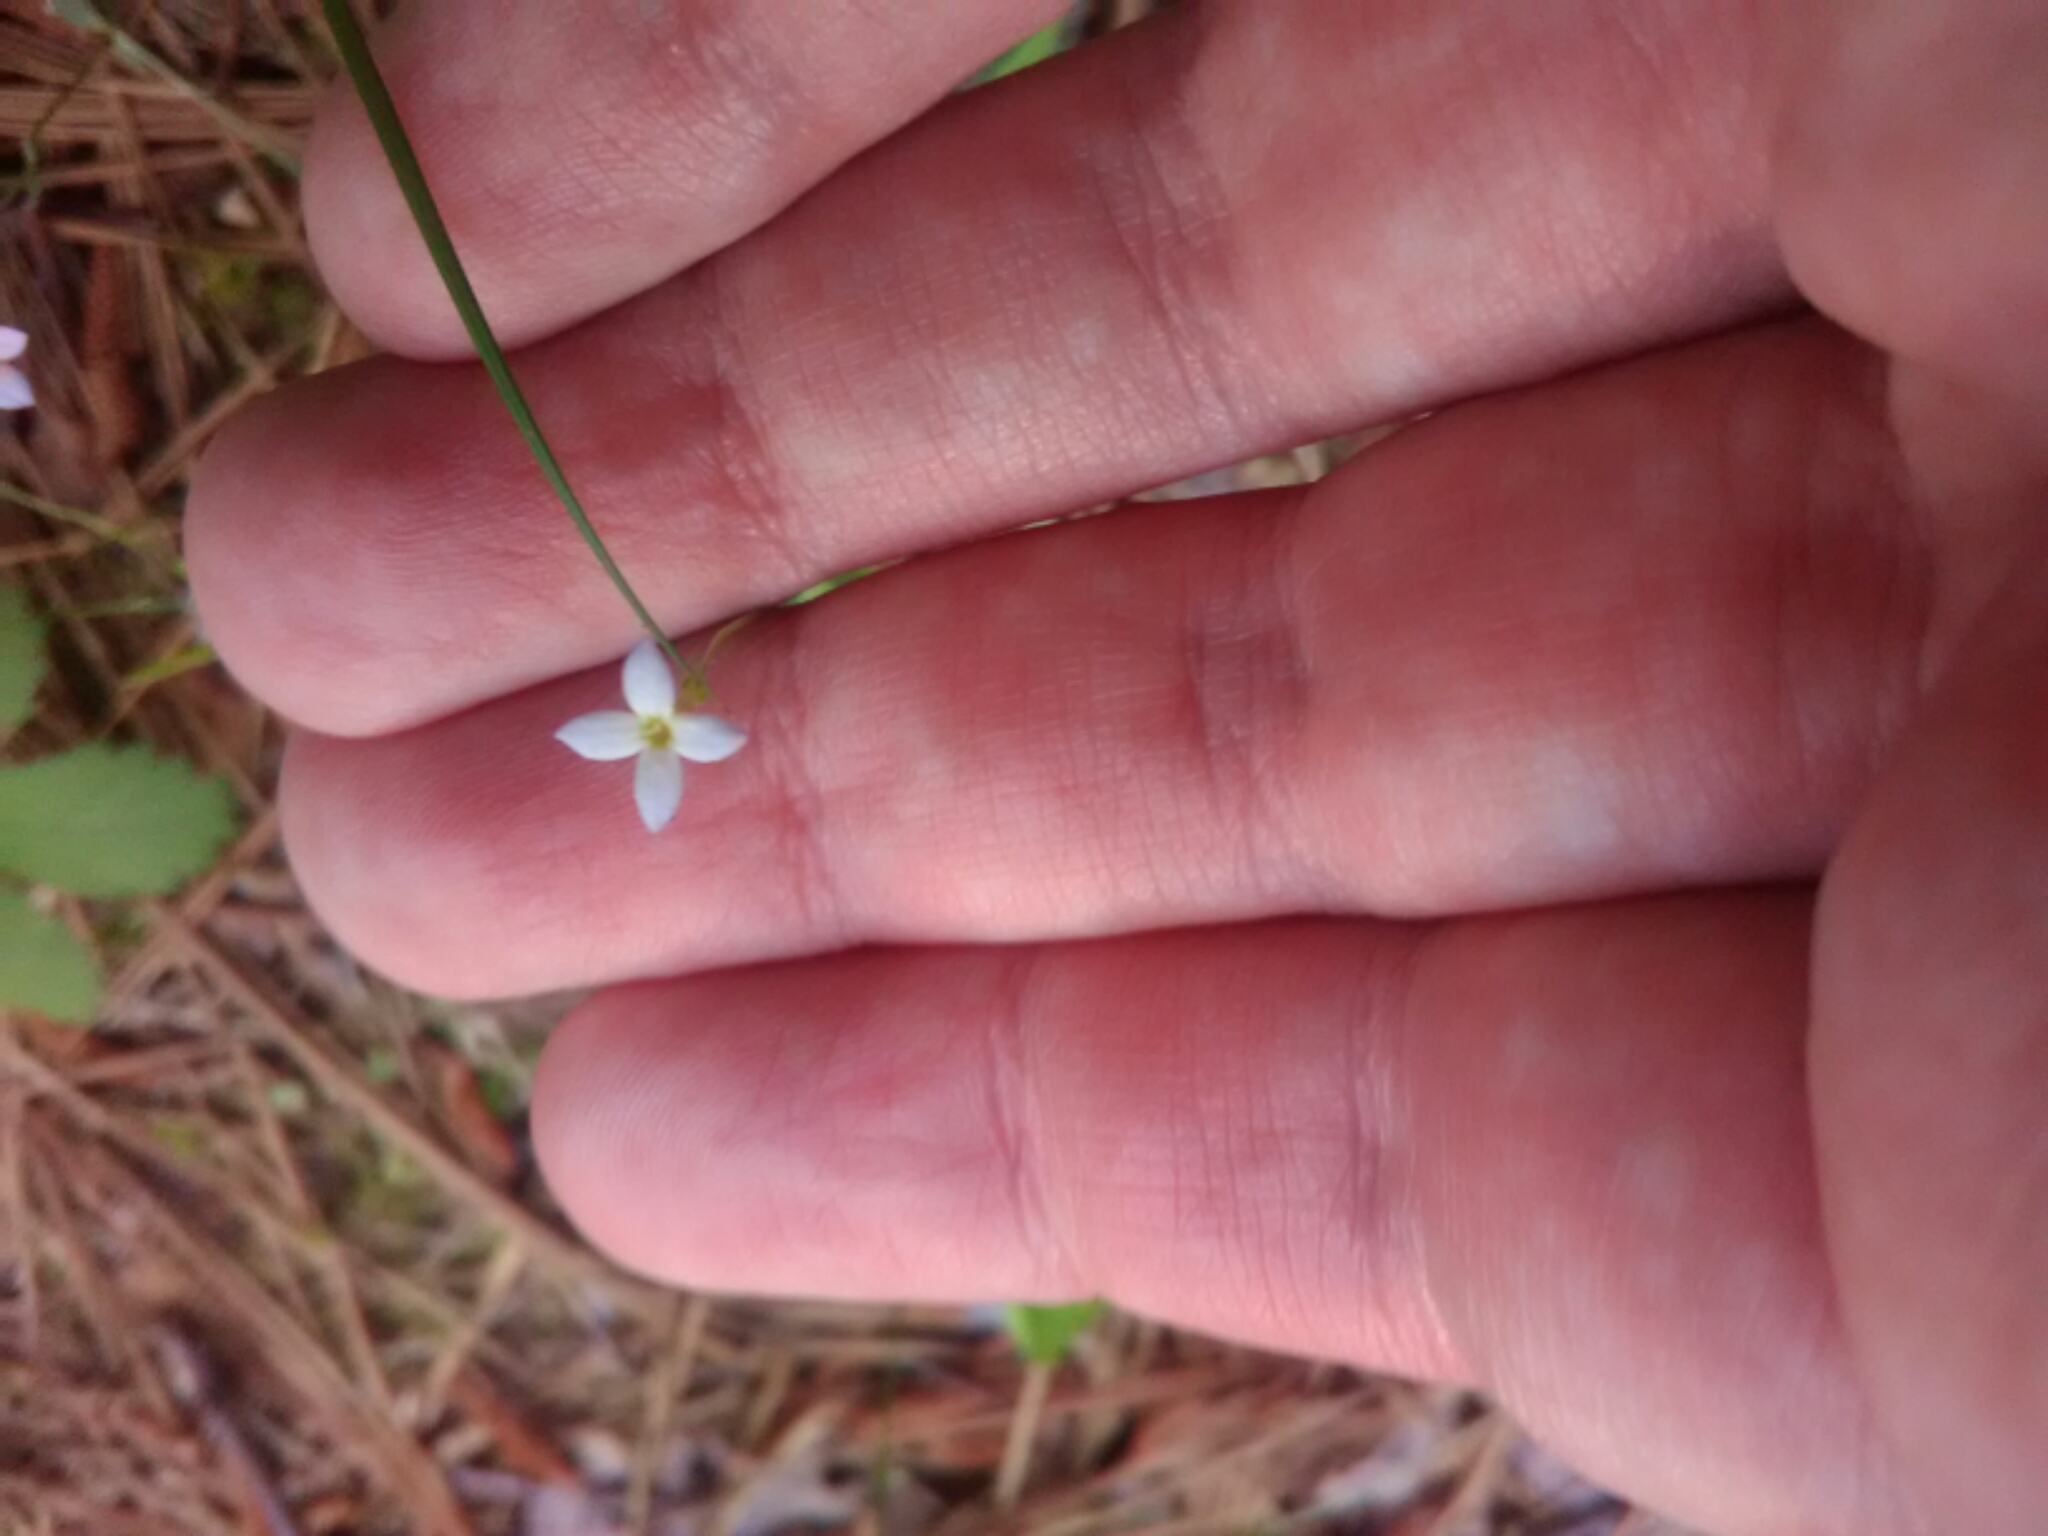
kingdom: Plantae
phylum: Tracheophyta
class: Magnoliopsida
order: Gentianales
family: Rubiaceae
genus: Houstonia
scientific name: Houstonia pusilla
